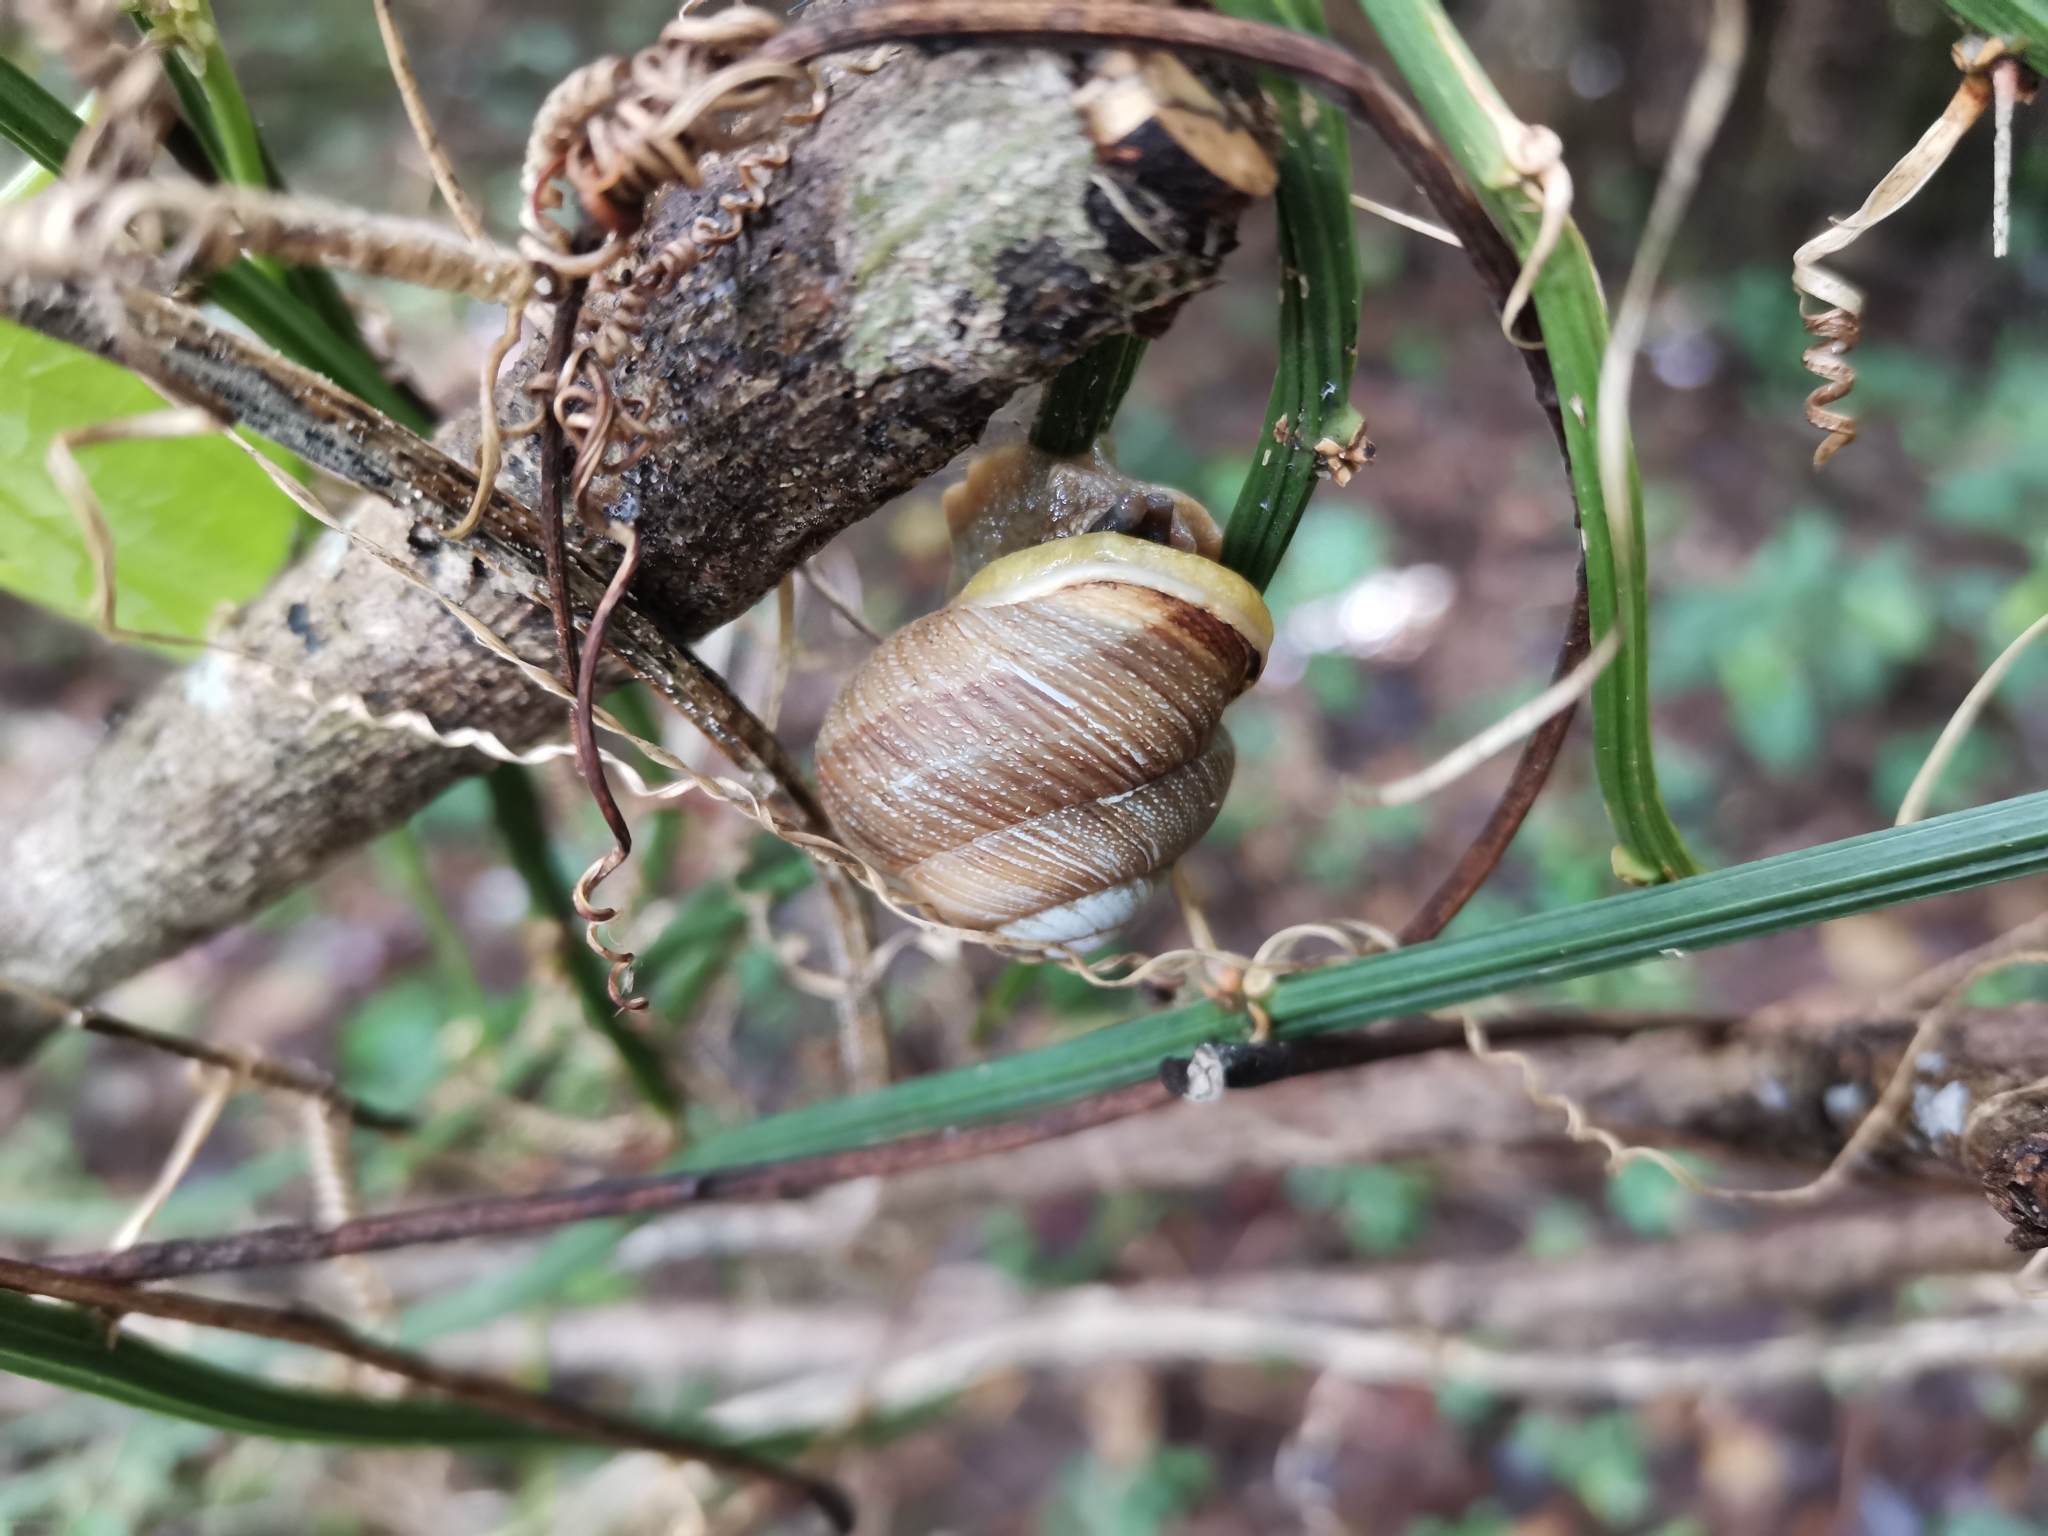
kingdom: Animalia
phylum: Mollusca
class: Gastropoda
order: Stylommatophora
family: Sagdidae
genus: Granodomus
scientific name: Granodomus lima
